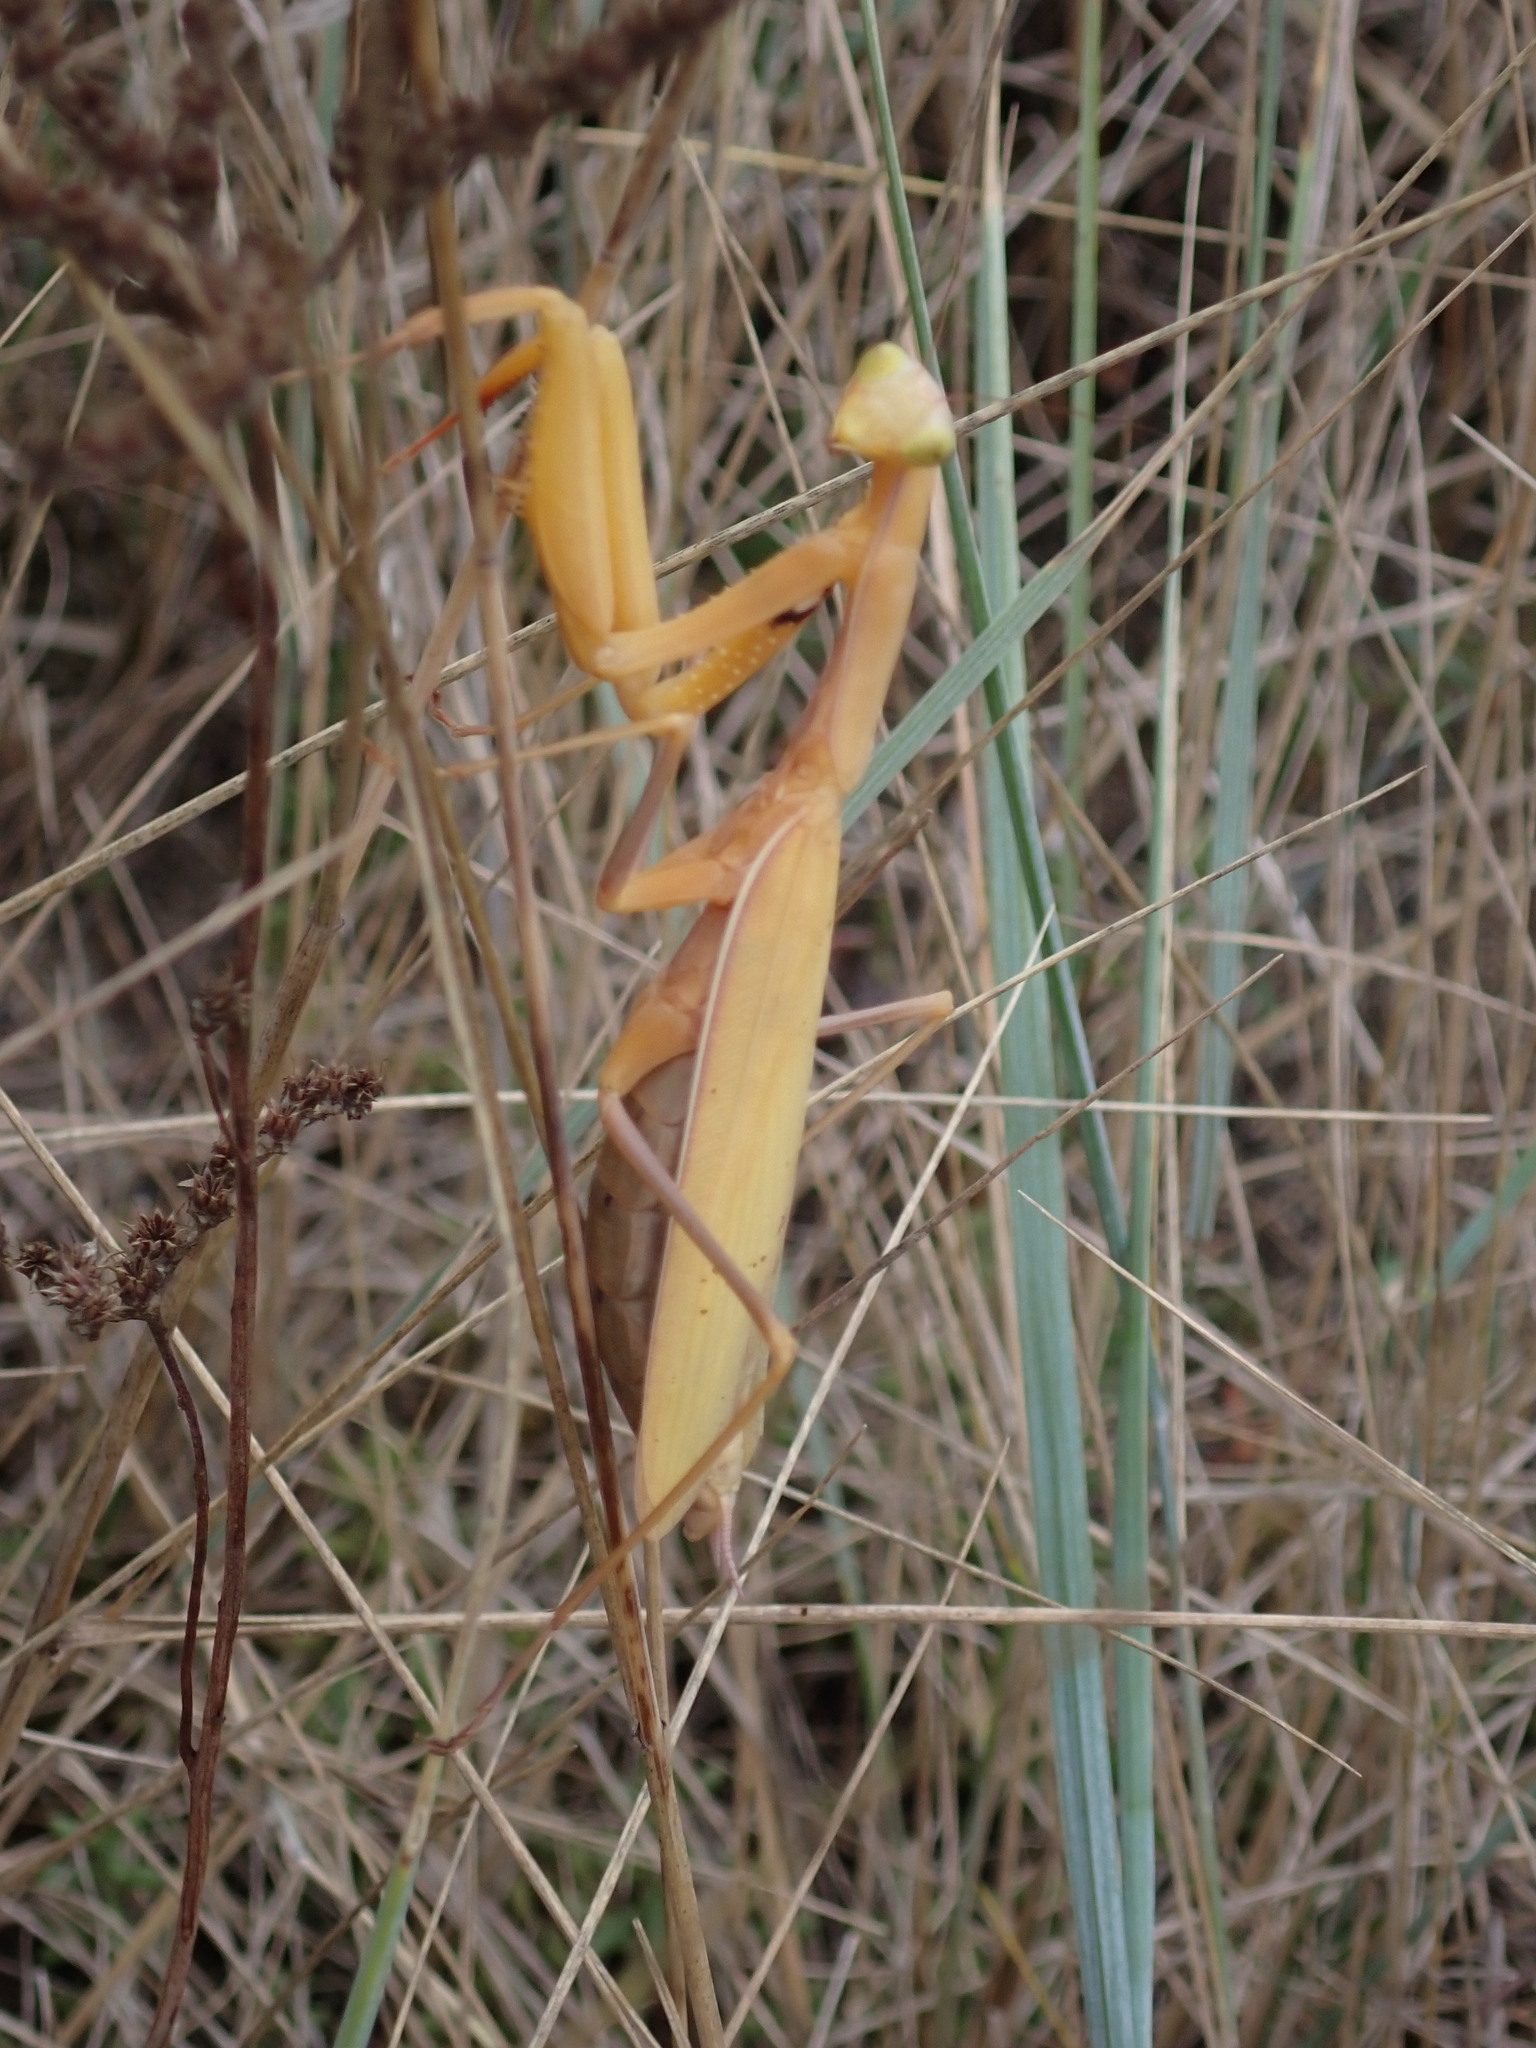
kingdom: Animalia
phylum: Arthropoda
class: Insecta
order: Mantodea
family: Mantidae
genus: Mantis
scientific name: Mantis religiosa
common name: Praying mantis
